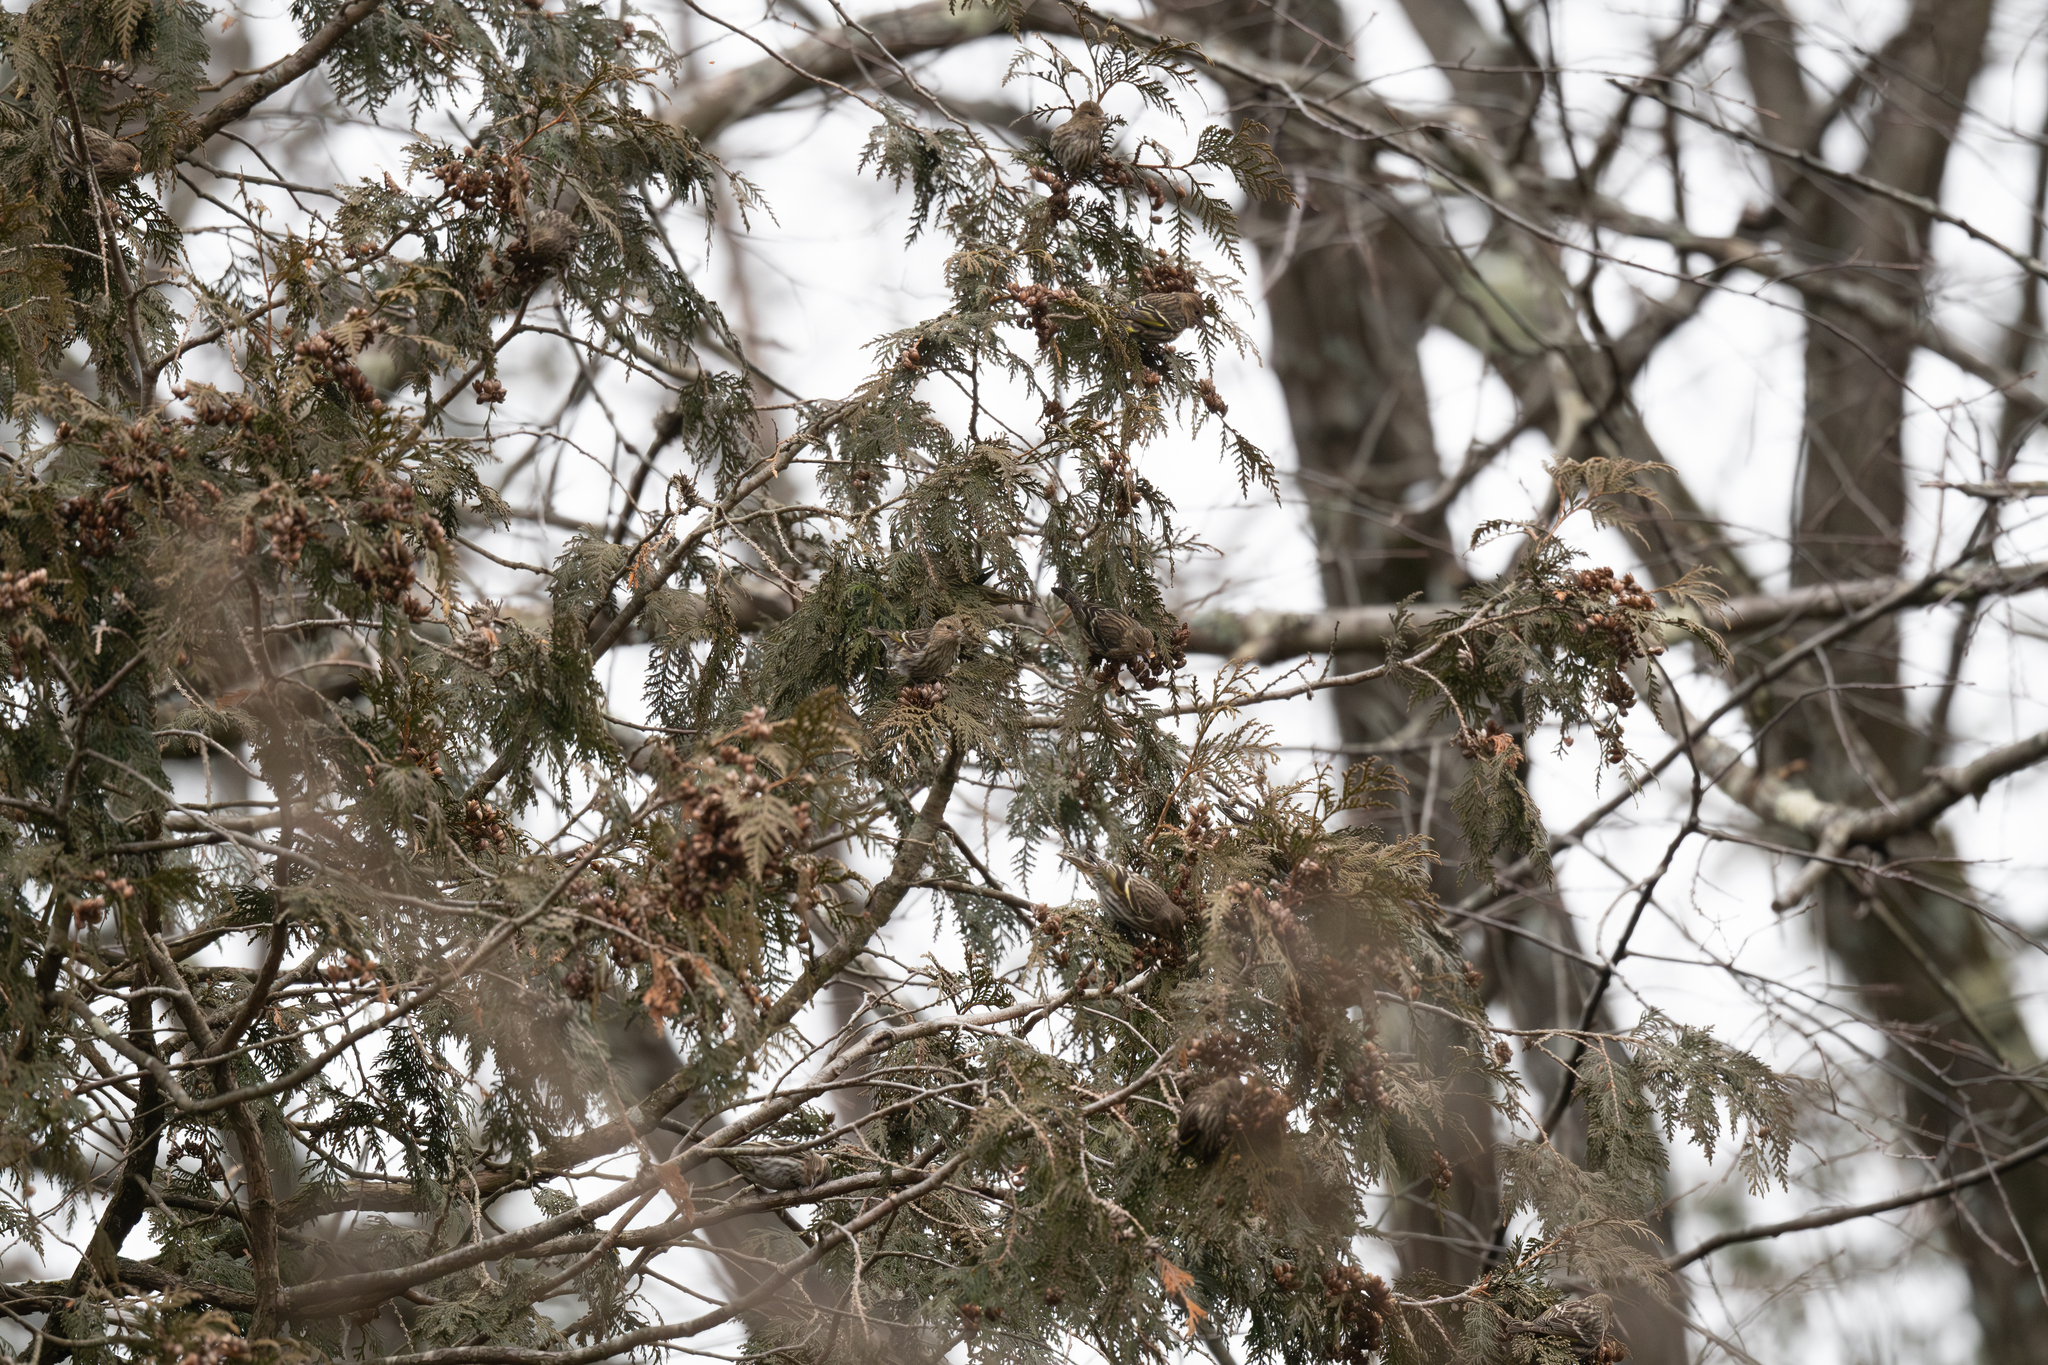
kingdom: Animalia
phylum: Chordata
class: Aves
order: Passeriformes
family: Fringillidae
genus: Spinus
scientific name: Spinus pinus
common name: Pine siskin
